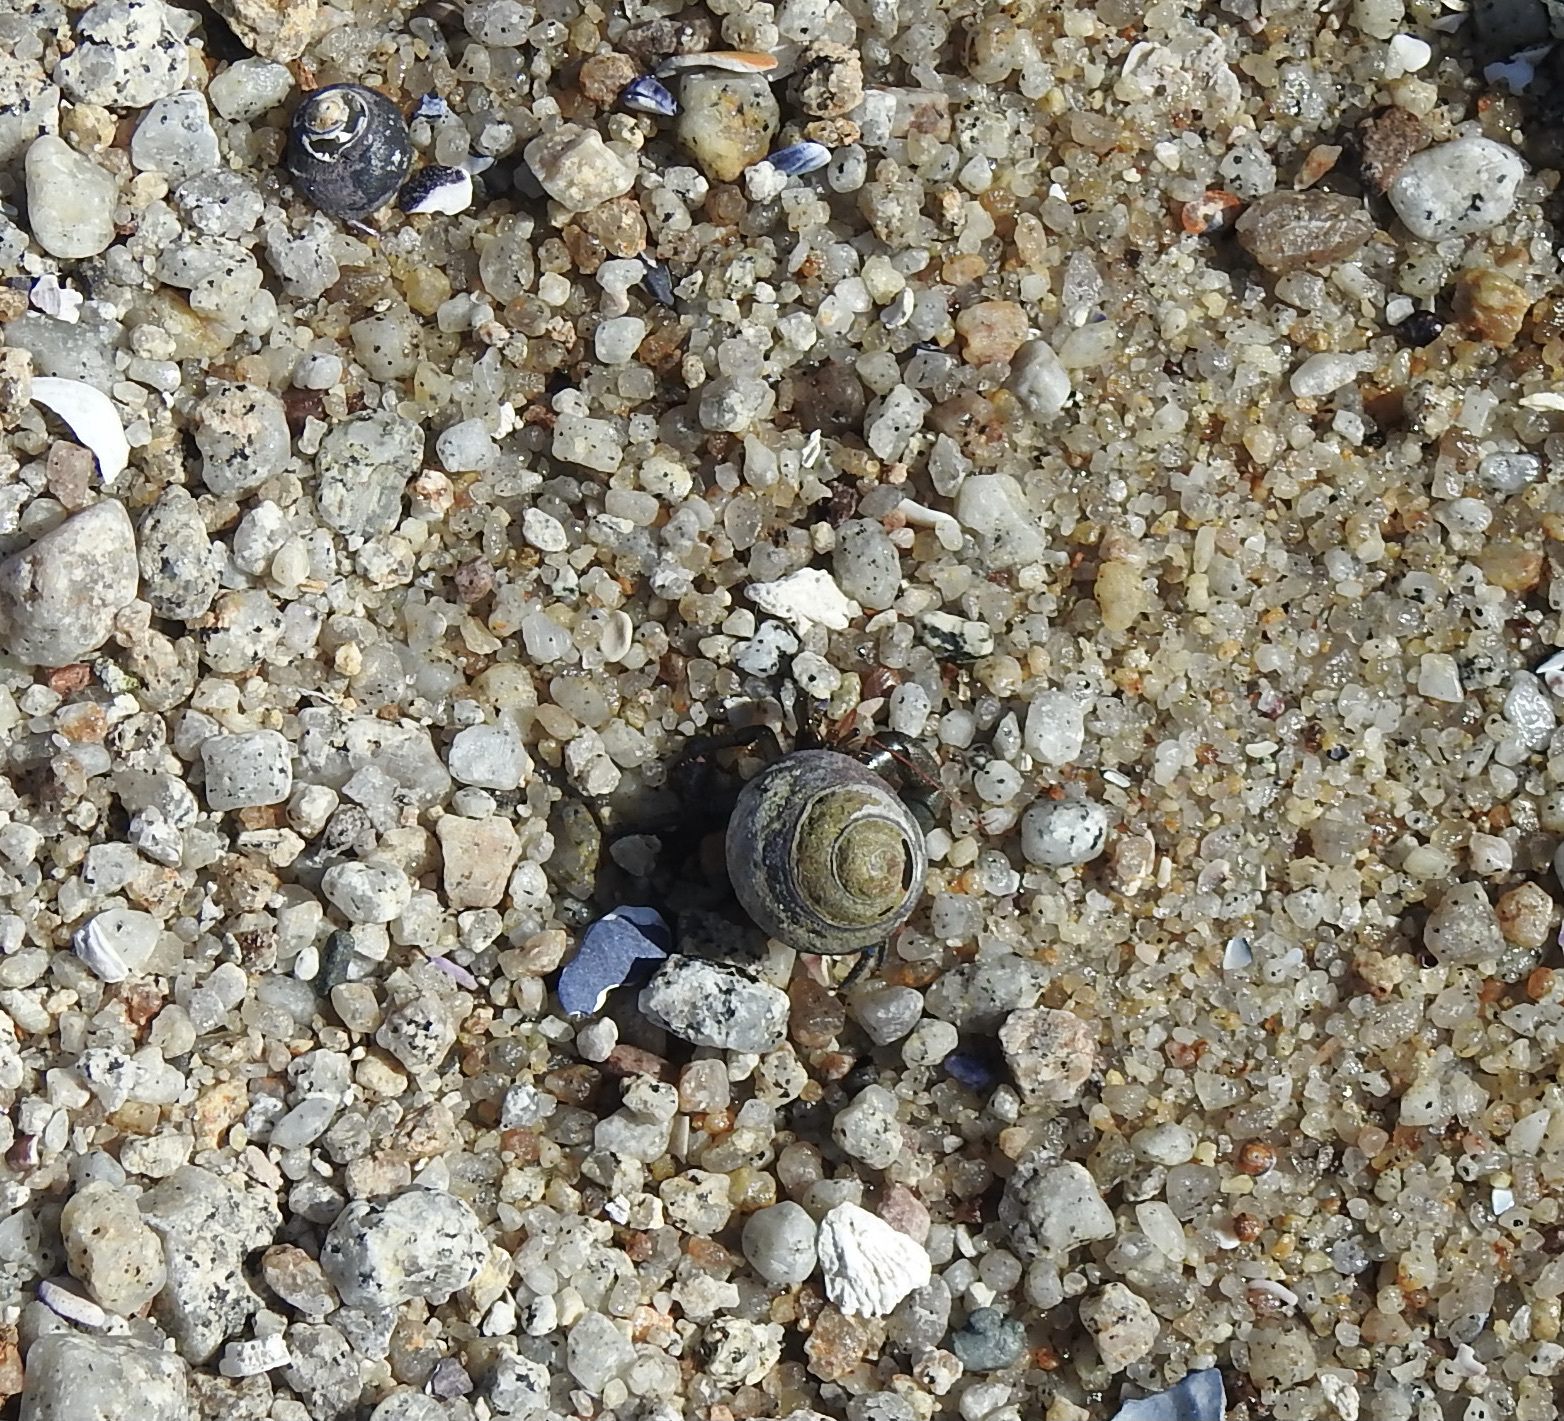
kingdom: Animalia
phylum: Arthropoda
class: Malacostraca
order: Decapoda
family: Paguridae
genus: Pagurus
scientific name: Pagurus samuelis
